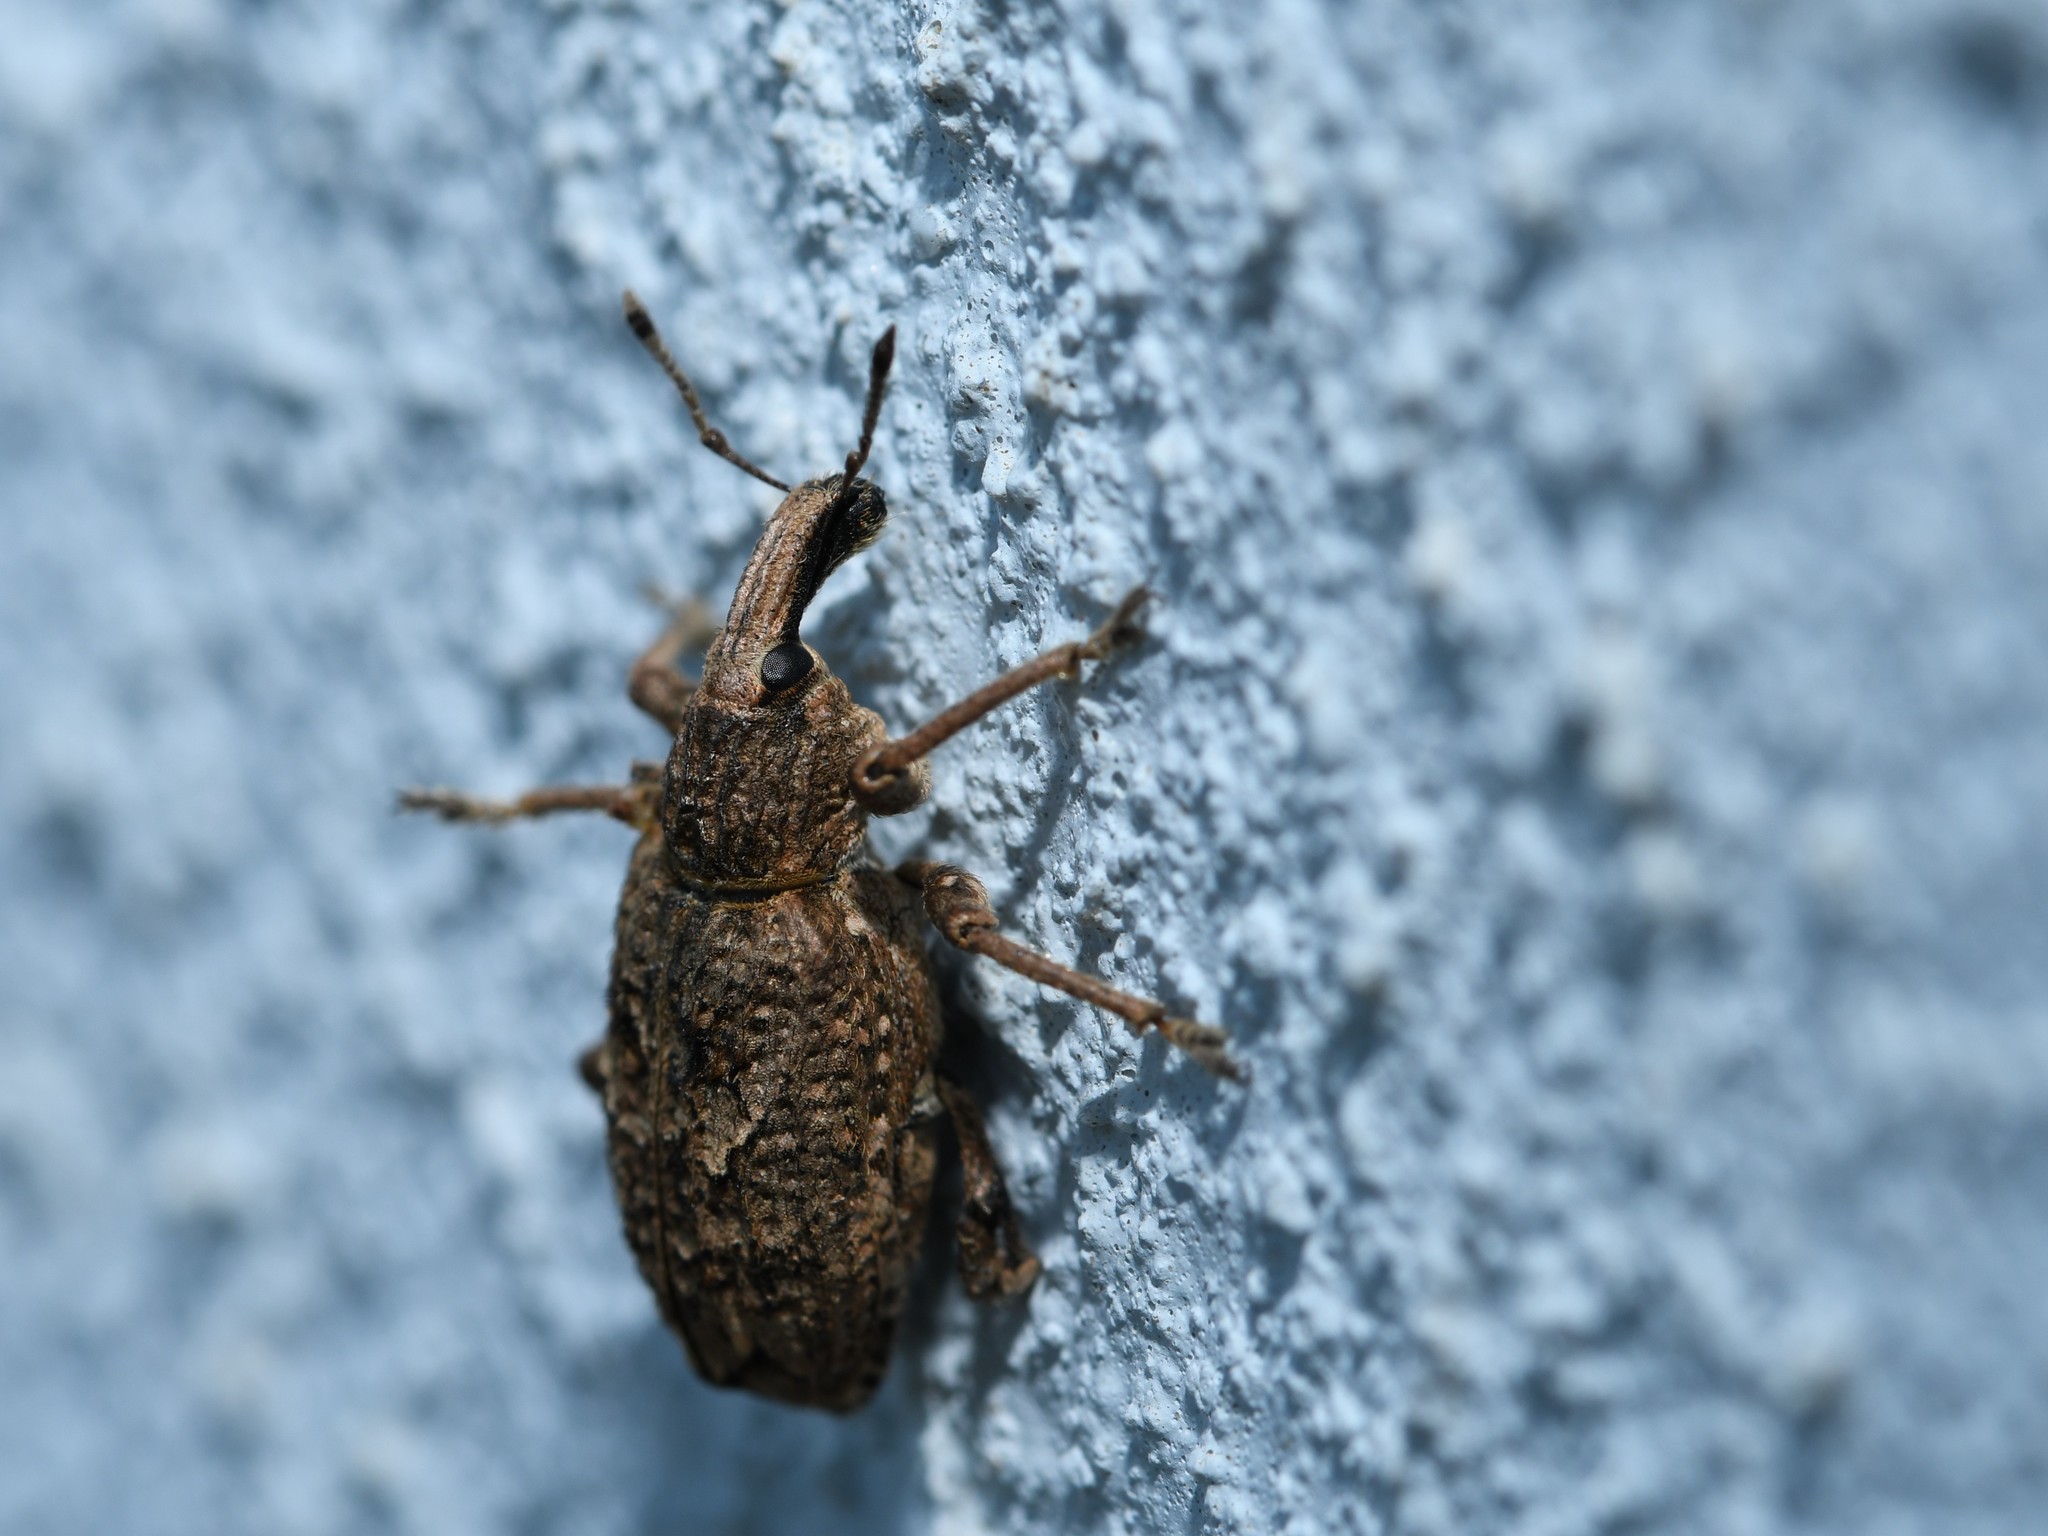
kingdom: Animalia
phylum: Arthropoda
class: Insecta
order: Coleoptera
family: Curculionidae
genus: Rhytideres
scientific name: Rhytideres plicatus
